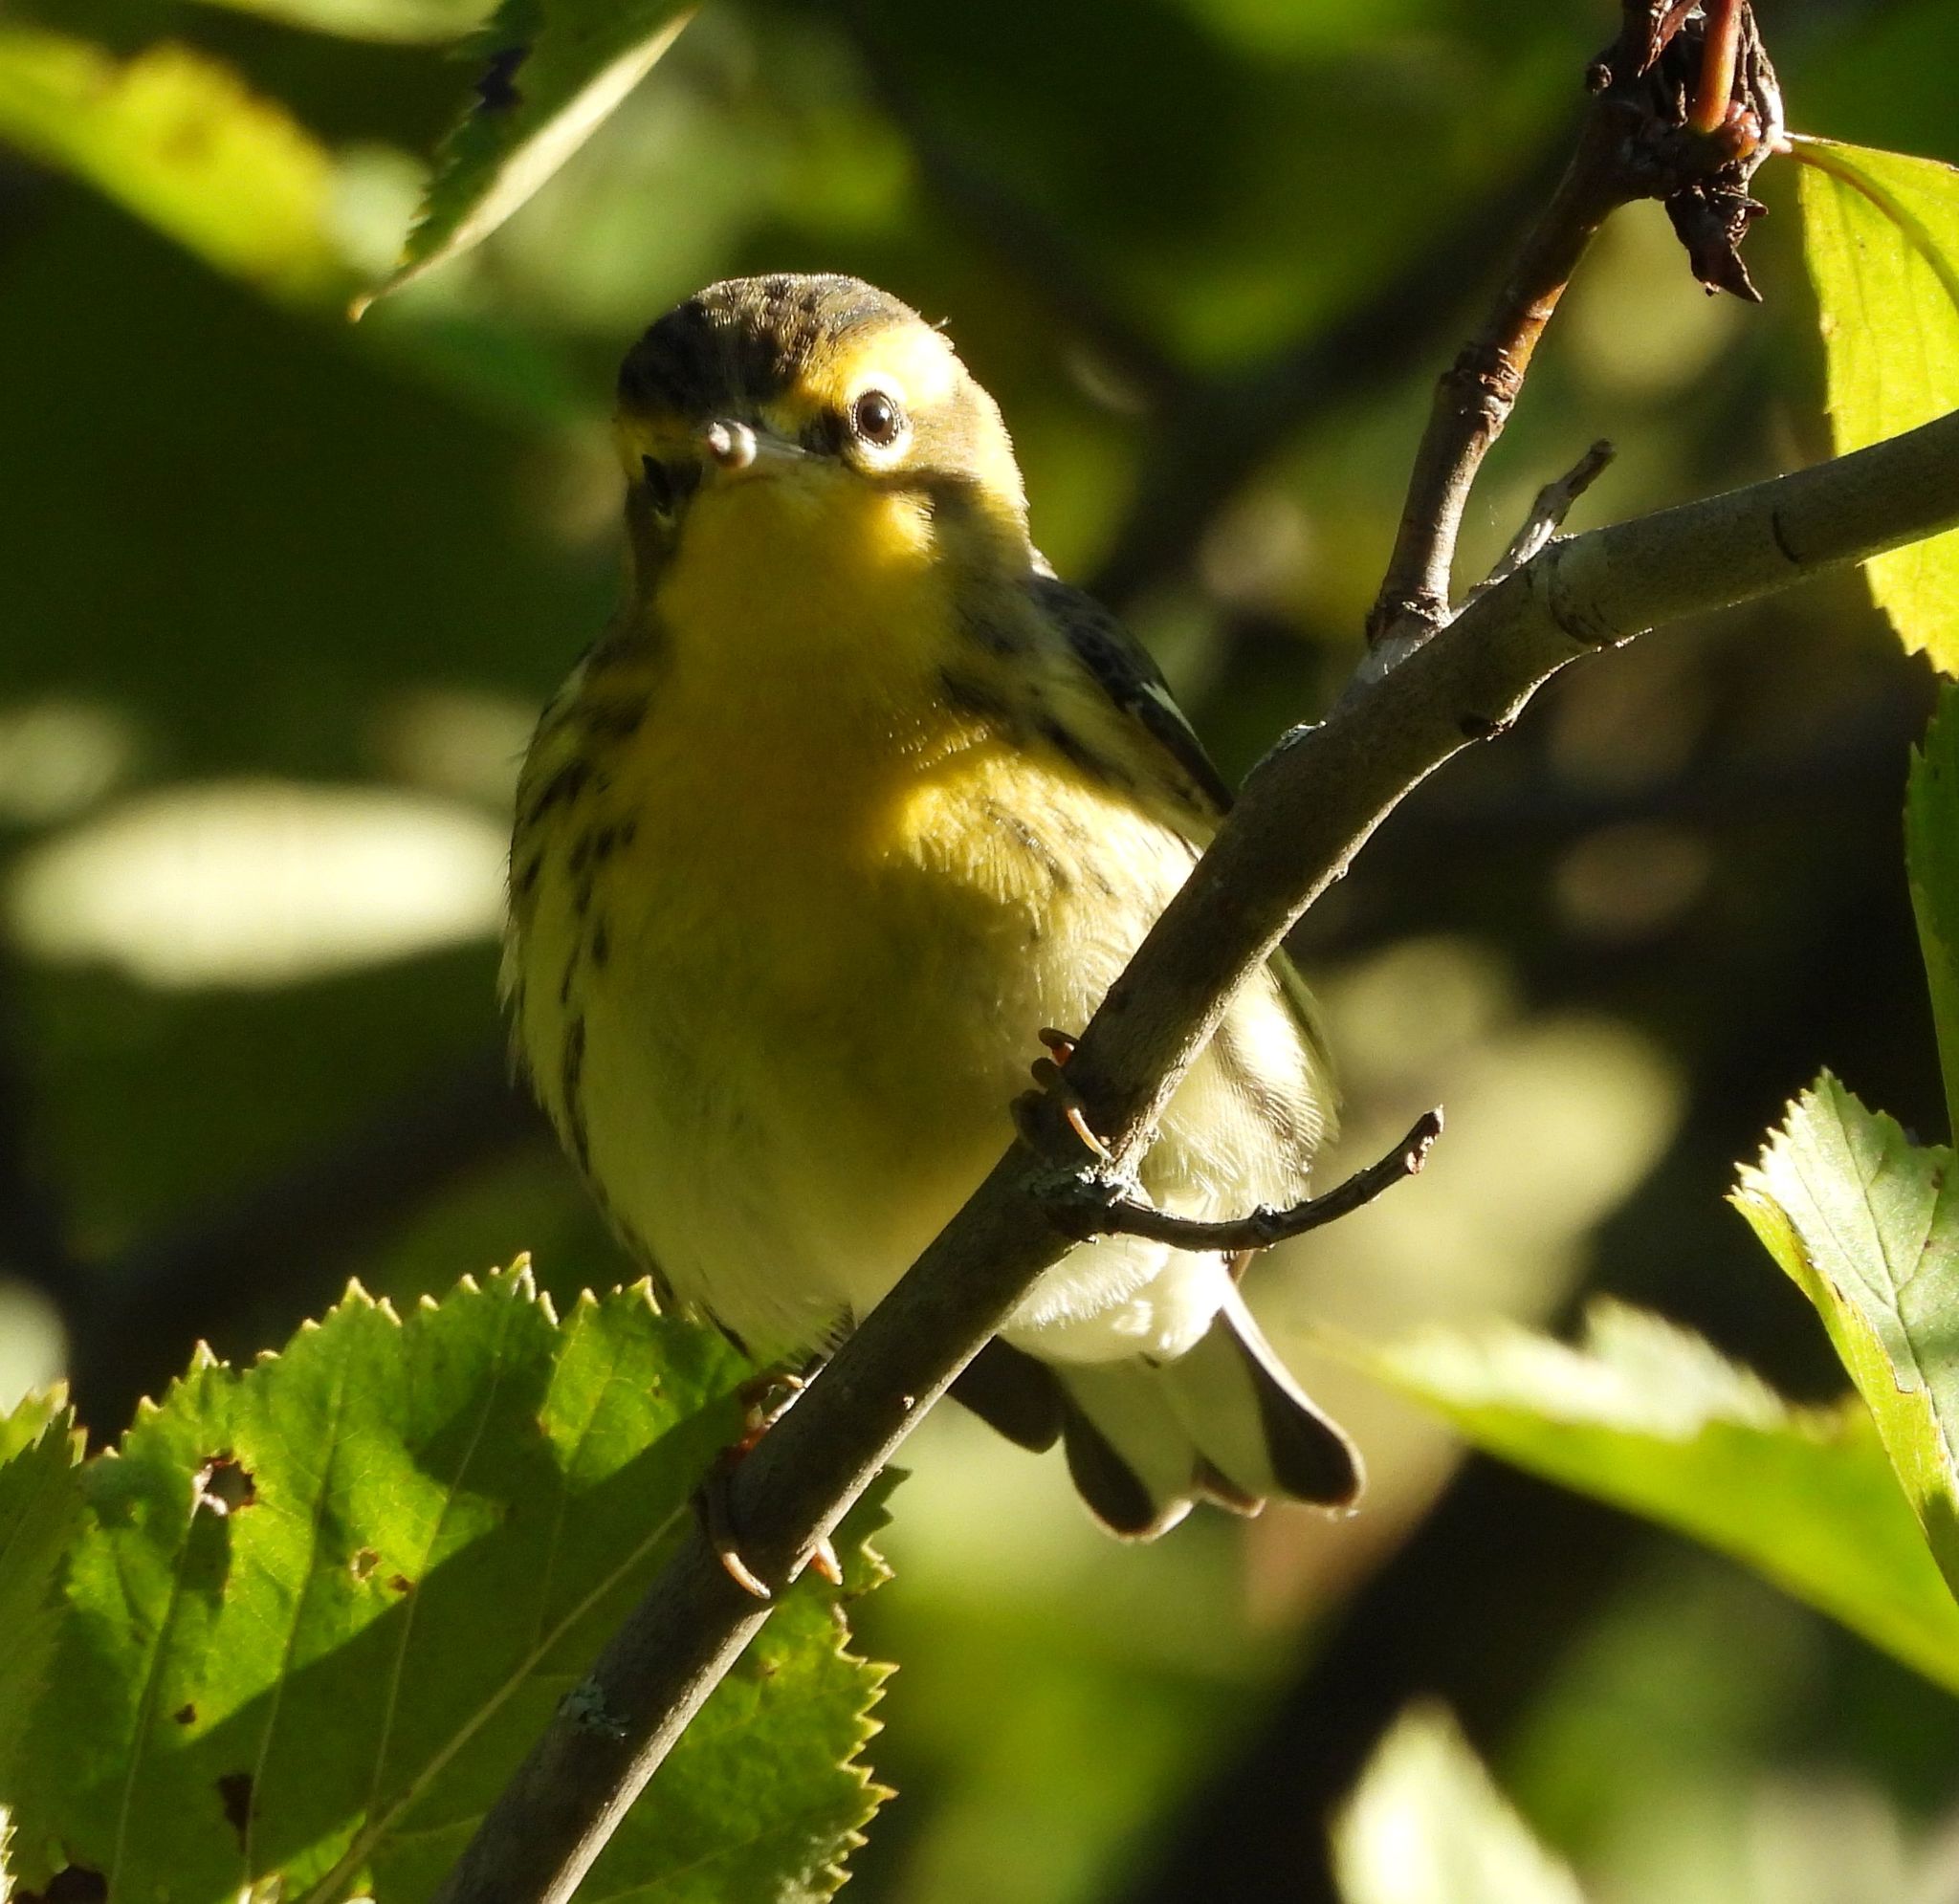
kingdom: Animalia
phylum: Chordata
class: Aves
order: Passeriformes
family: Parulidae
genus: Setophaga
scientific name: Setophaga fusca
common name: Blackburnian warbler
